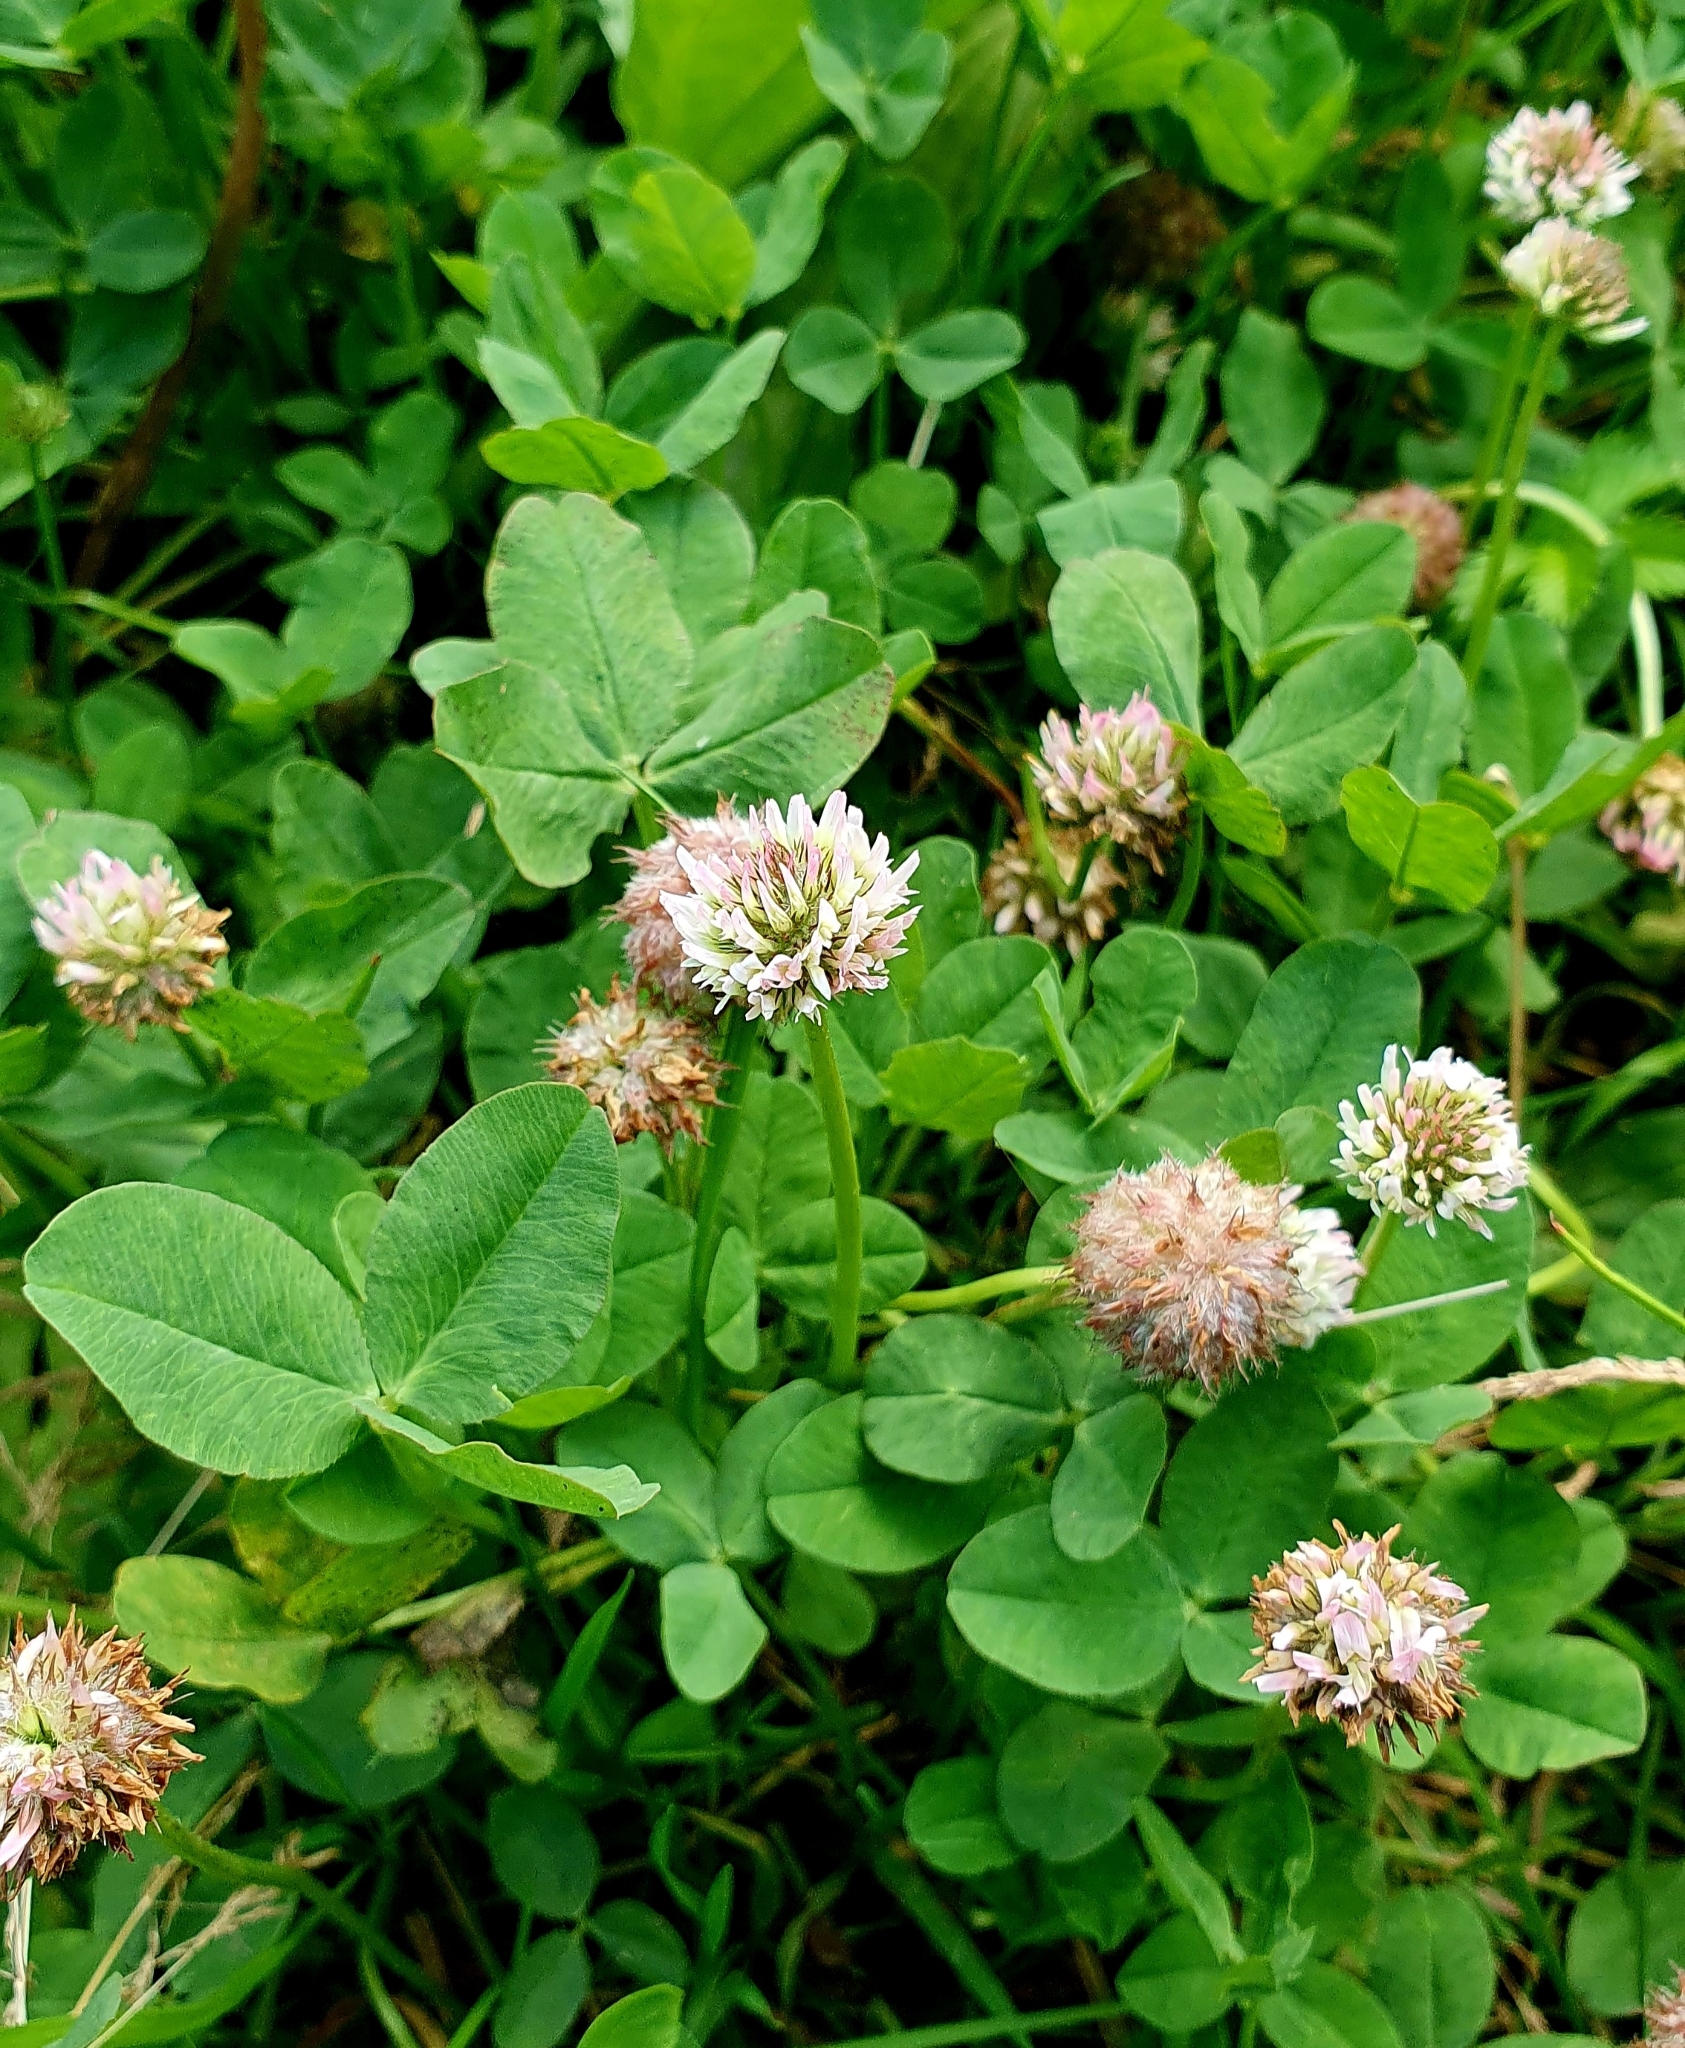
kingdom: Plantae
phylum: Tracheophyta
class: Magnoliopsida
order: Fabales
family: Fabaceae
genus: Trifolium
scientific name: Trifolium fragiferum
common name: Strawberry clover
